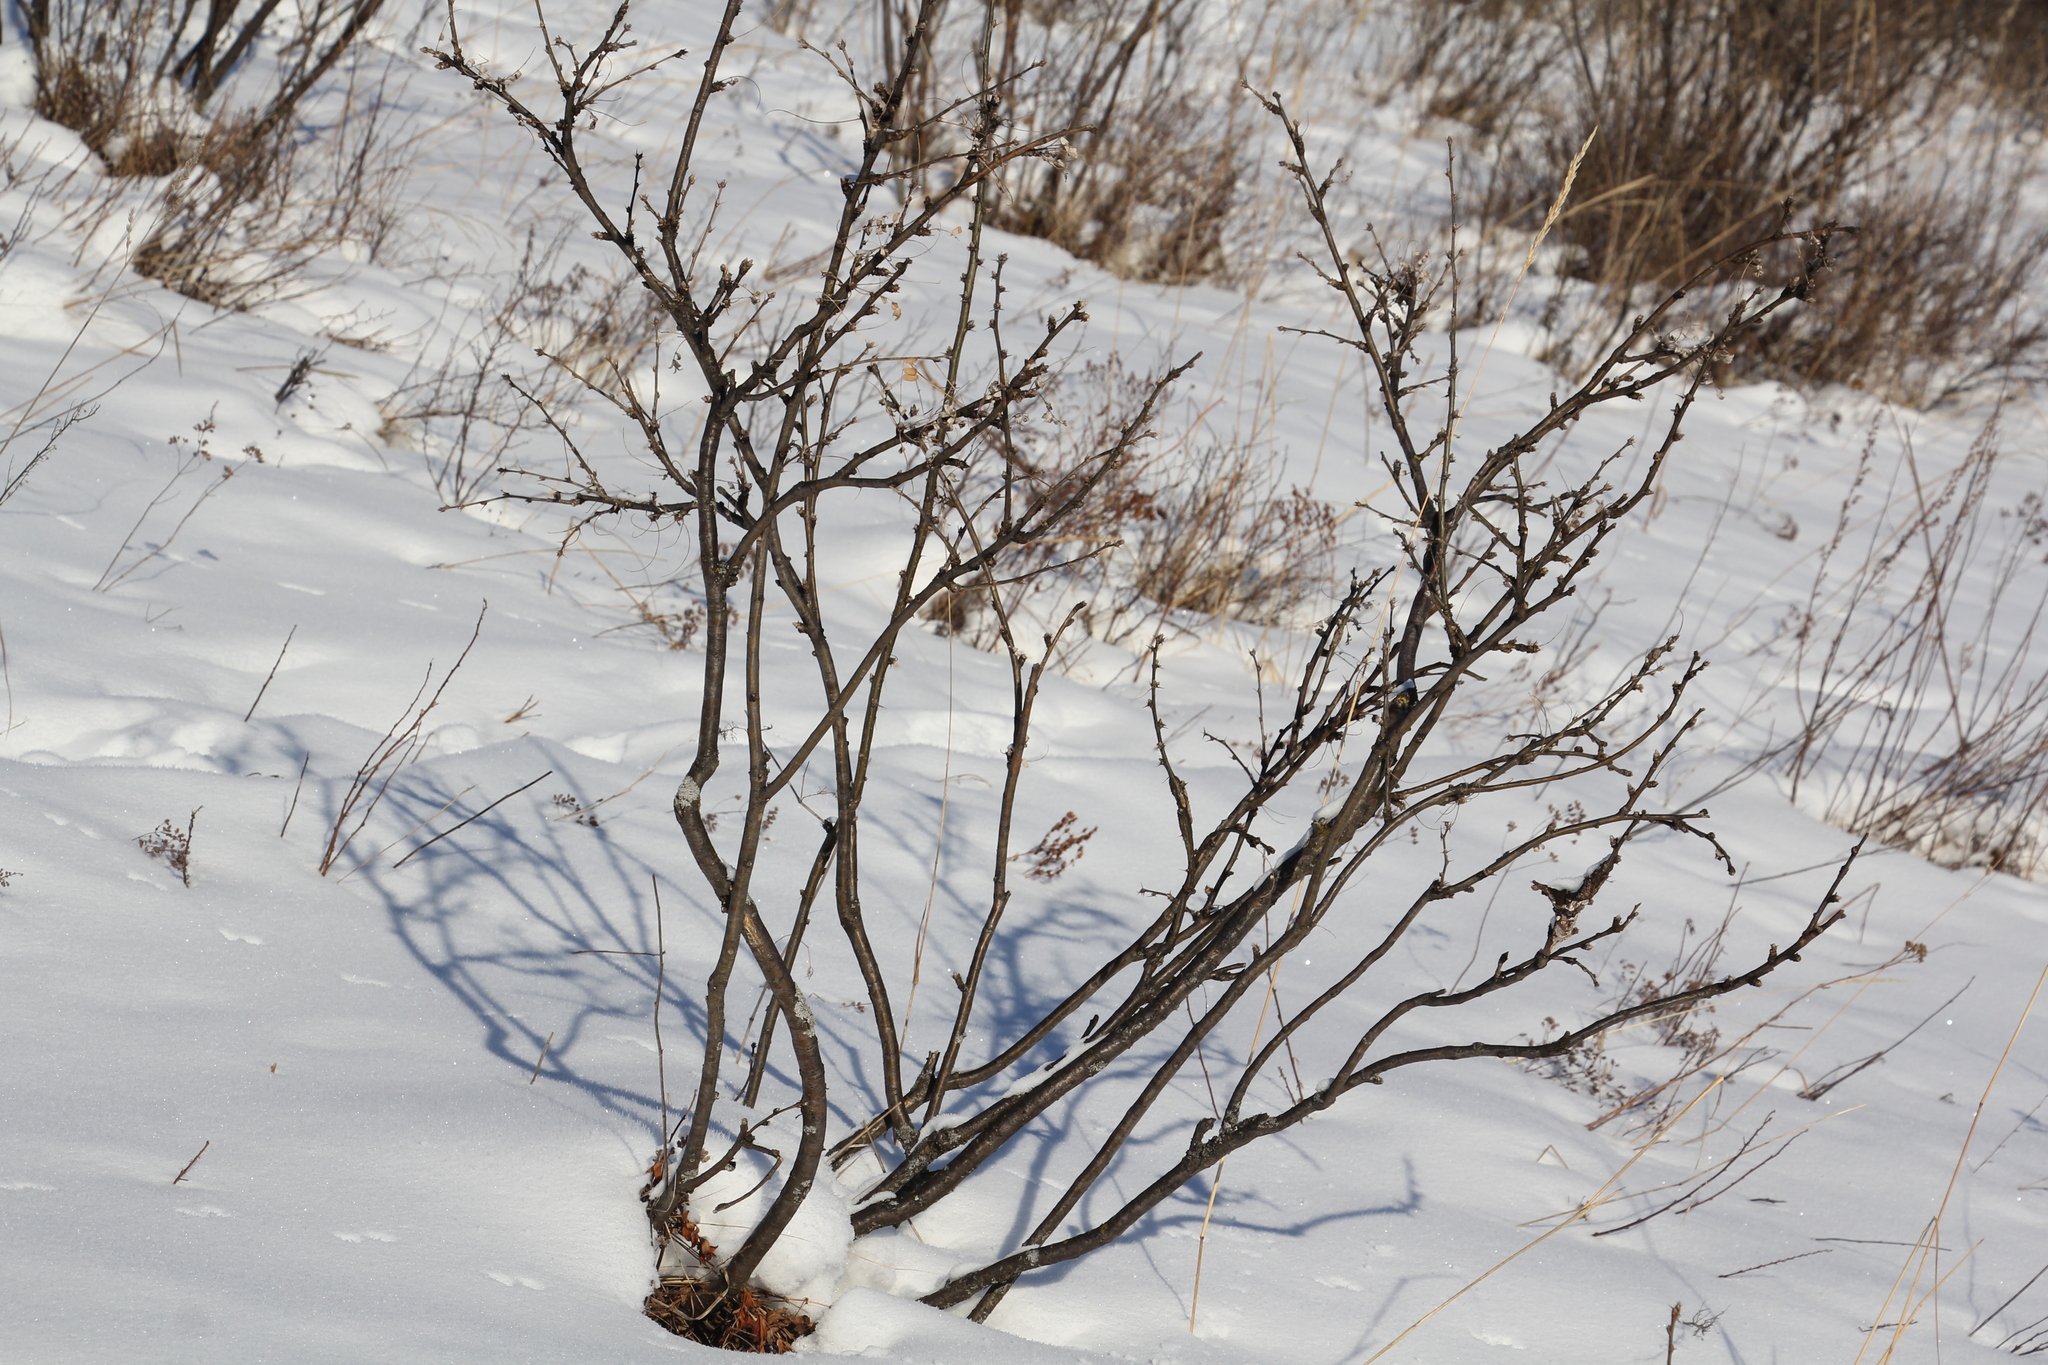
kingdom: Plantae
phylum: Tracheophyta
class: Magnoliopsida
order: Fabales
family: Fabaceae
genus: Caragana
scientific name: Caragana arborescens
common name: Siberian peashrub
